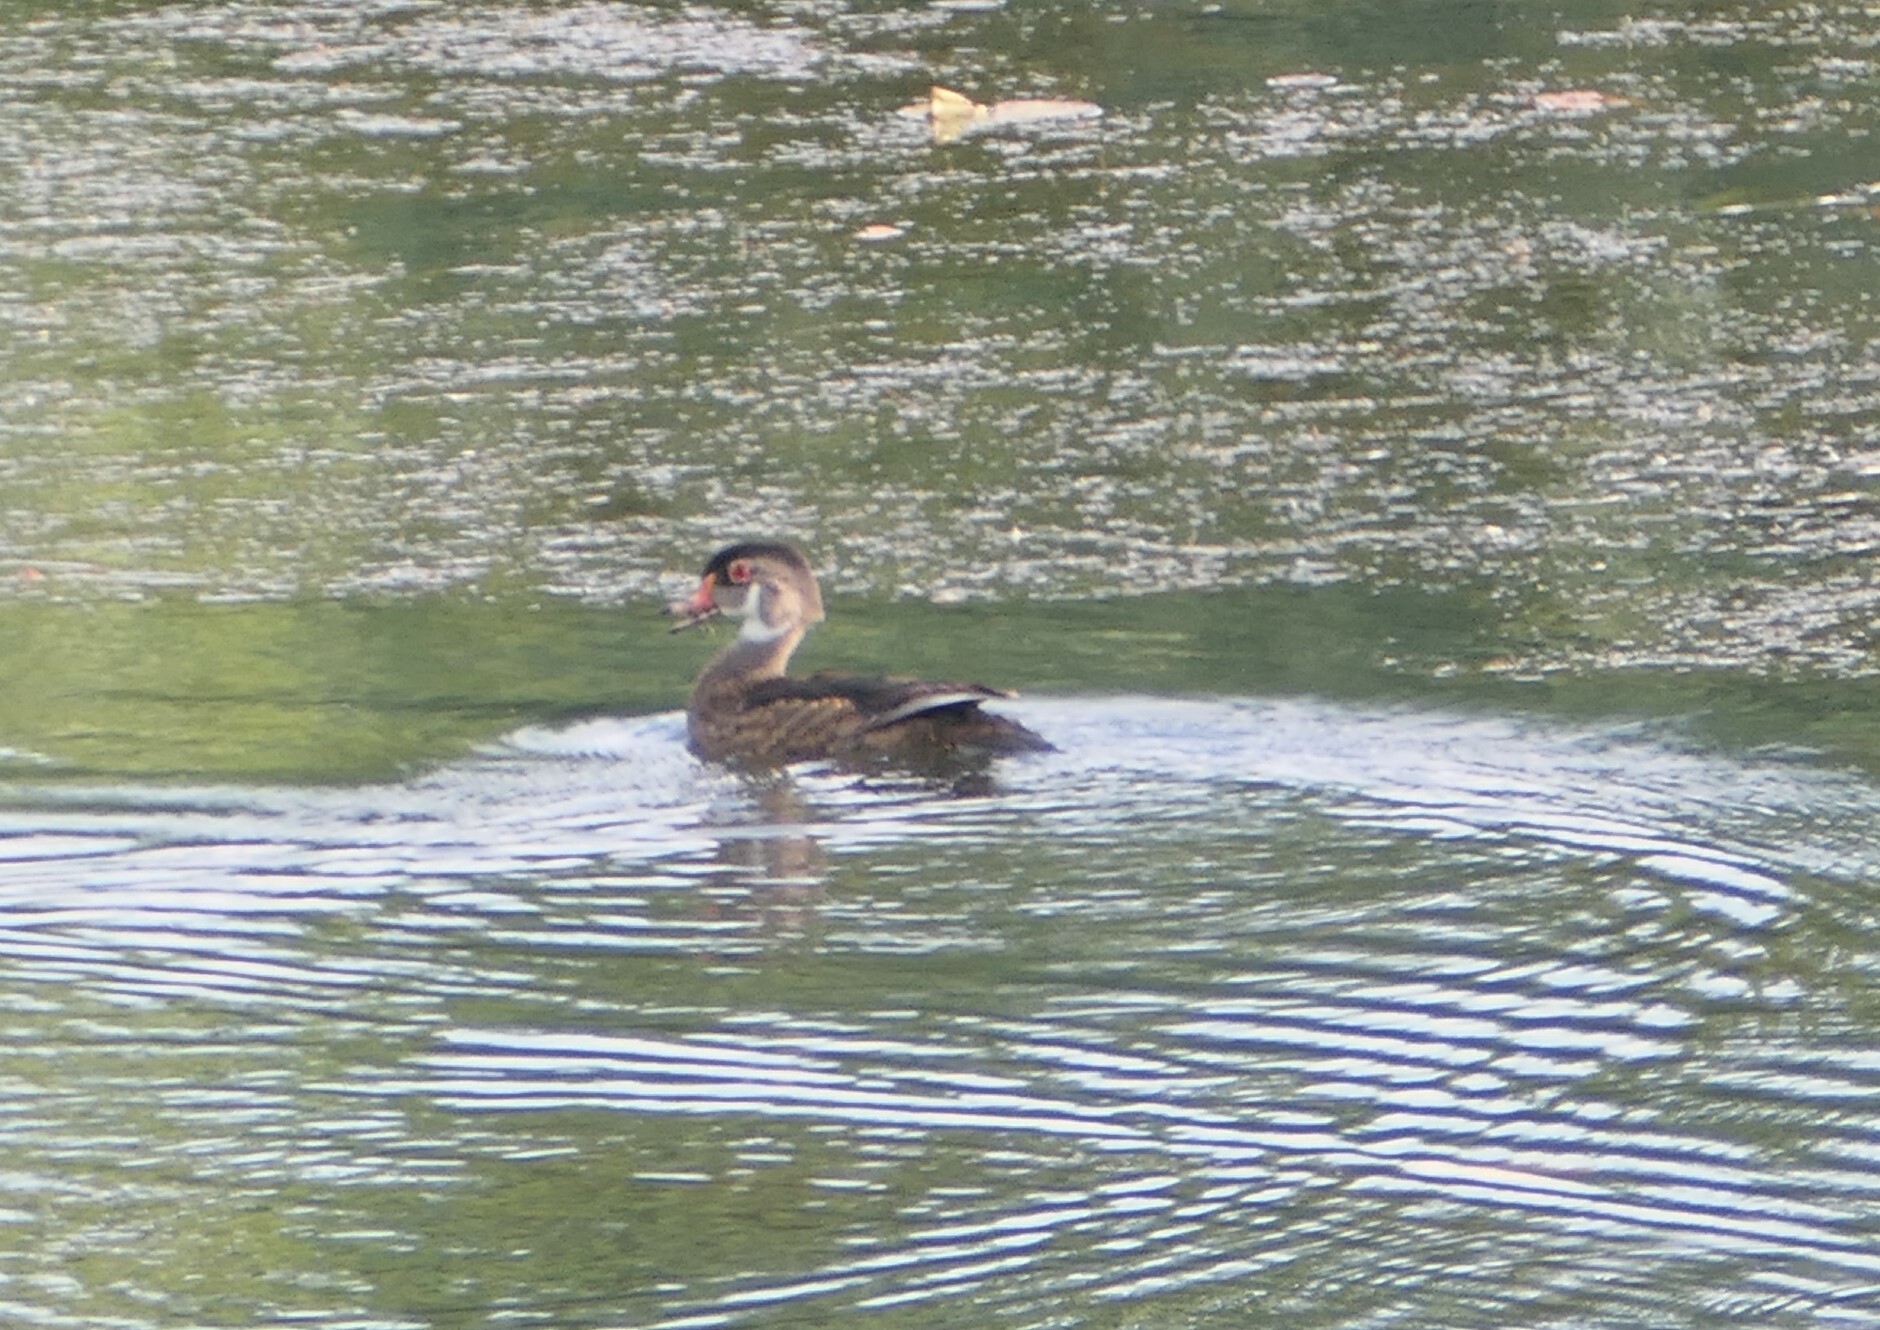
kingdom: Animalia
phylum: Chordata
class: Aves
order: Anseriformes
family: Anatidae
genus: Aix
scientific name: Aix sponsa
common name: Wood duck
